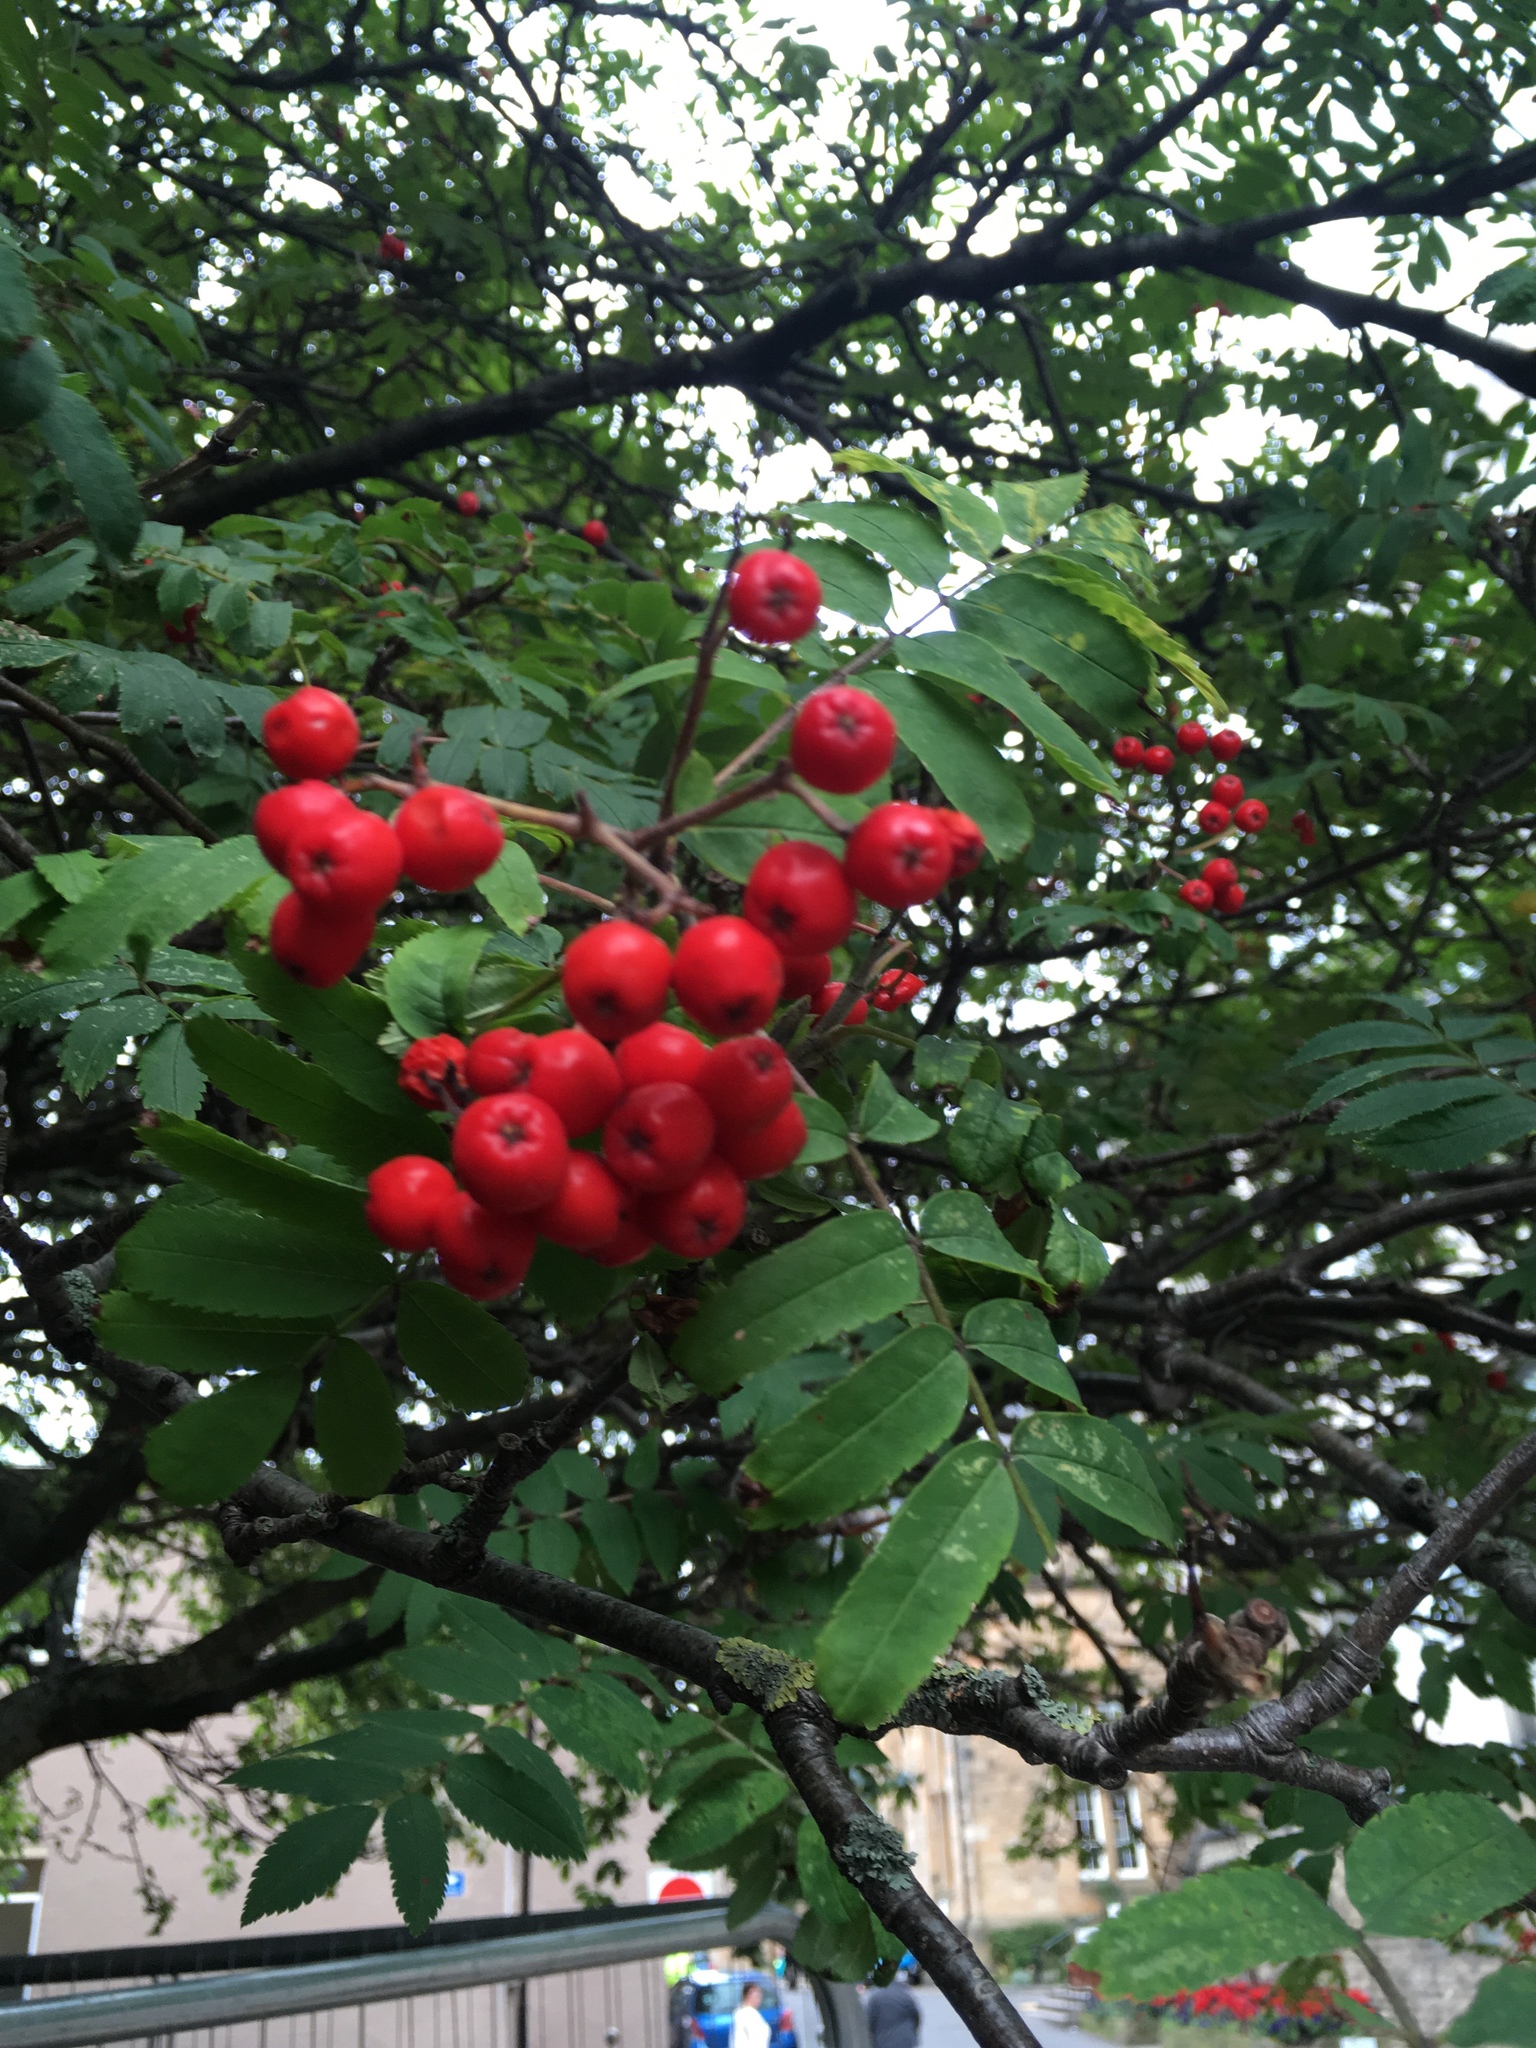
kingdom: Plantae
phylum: Tracheophyta
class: Magnoliopsida
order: Rosales
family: Rosaceae
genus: Sorbus
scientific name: Sorbus aucuparia
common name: Rowan
